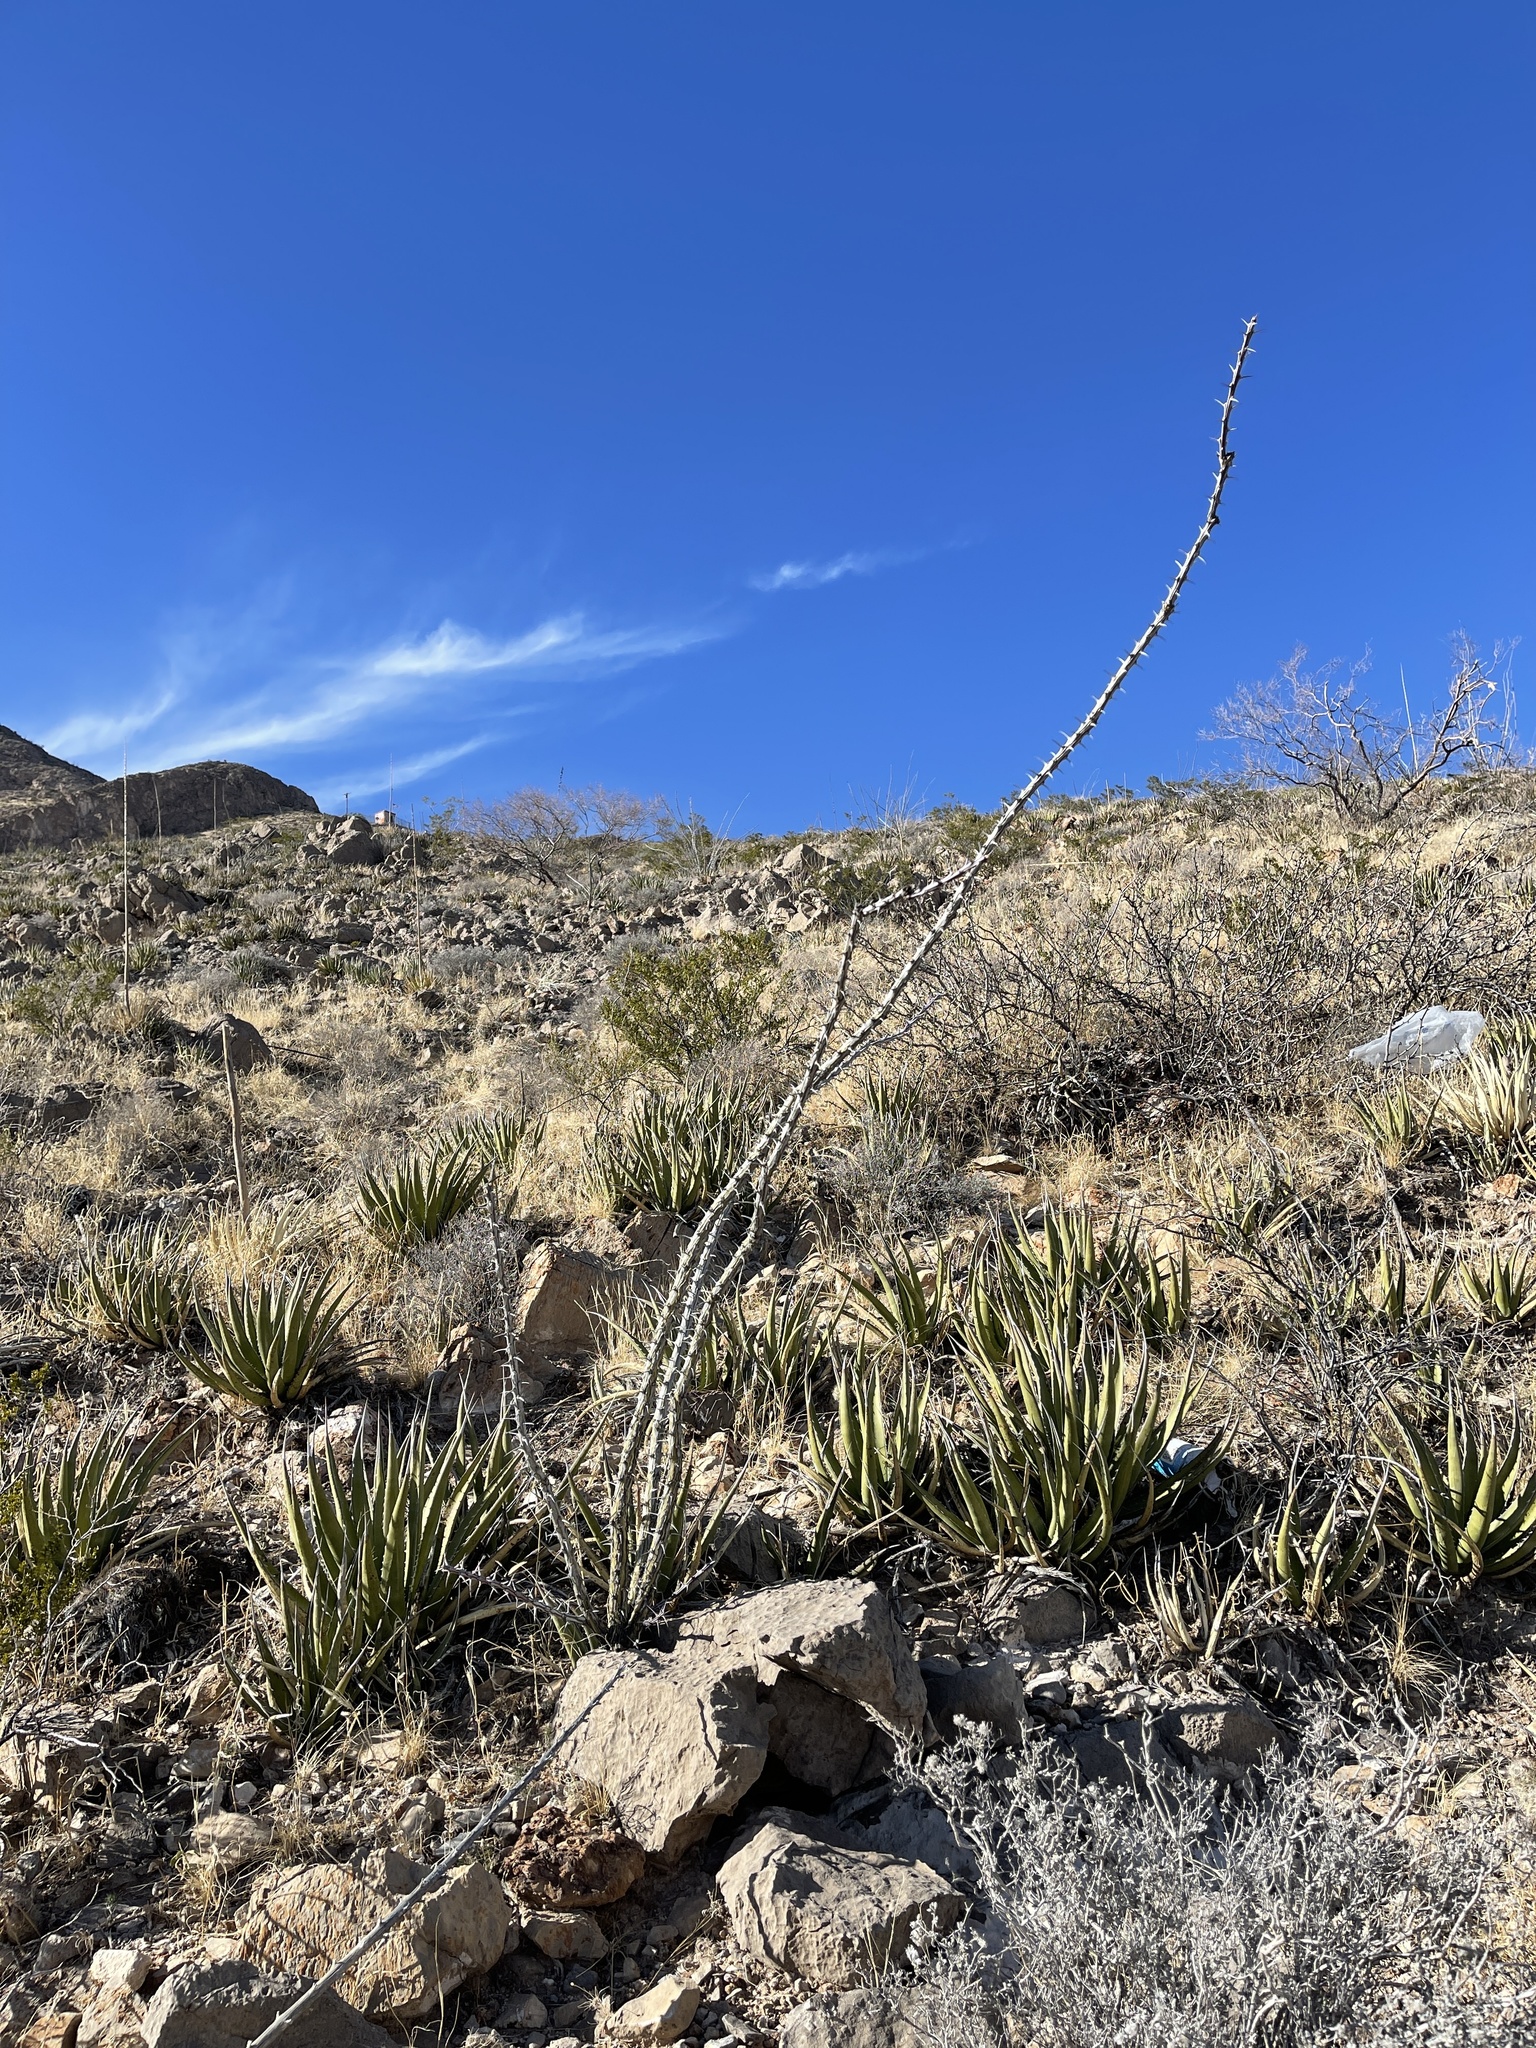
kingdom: Plantae
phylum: Tracheophyta
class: Magnoliopsida
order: Ericales
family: Fouquieriaceae
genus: Fouquieria
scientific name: Fouquieria splendens
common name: Vine-cactus
